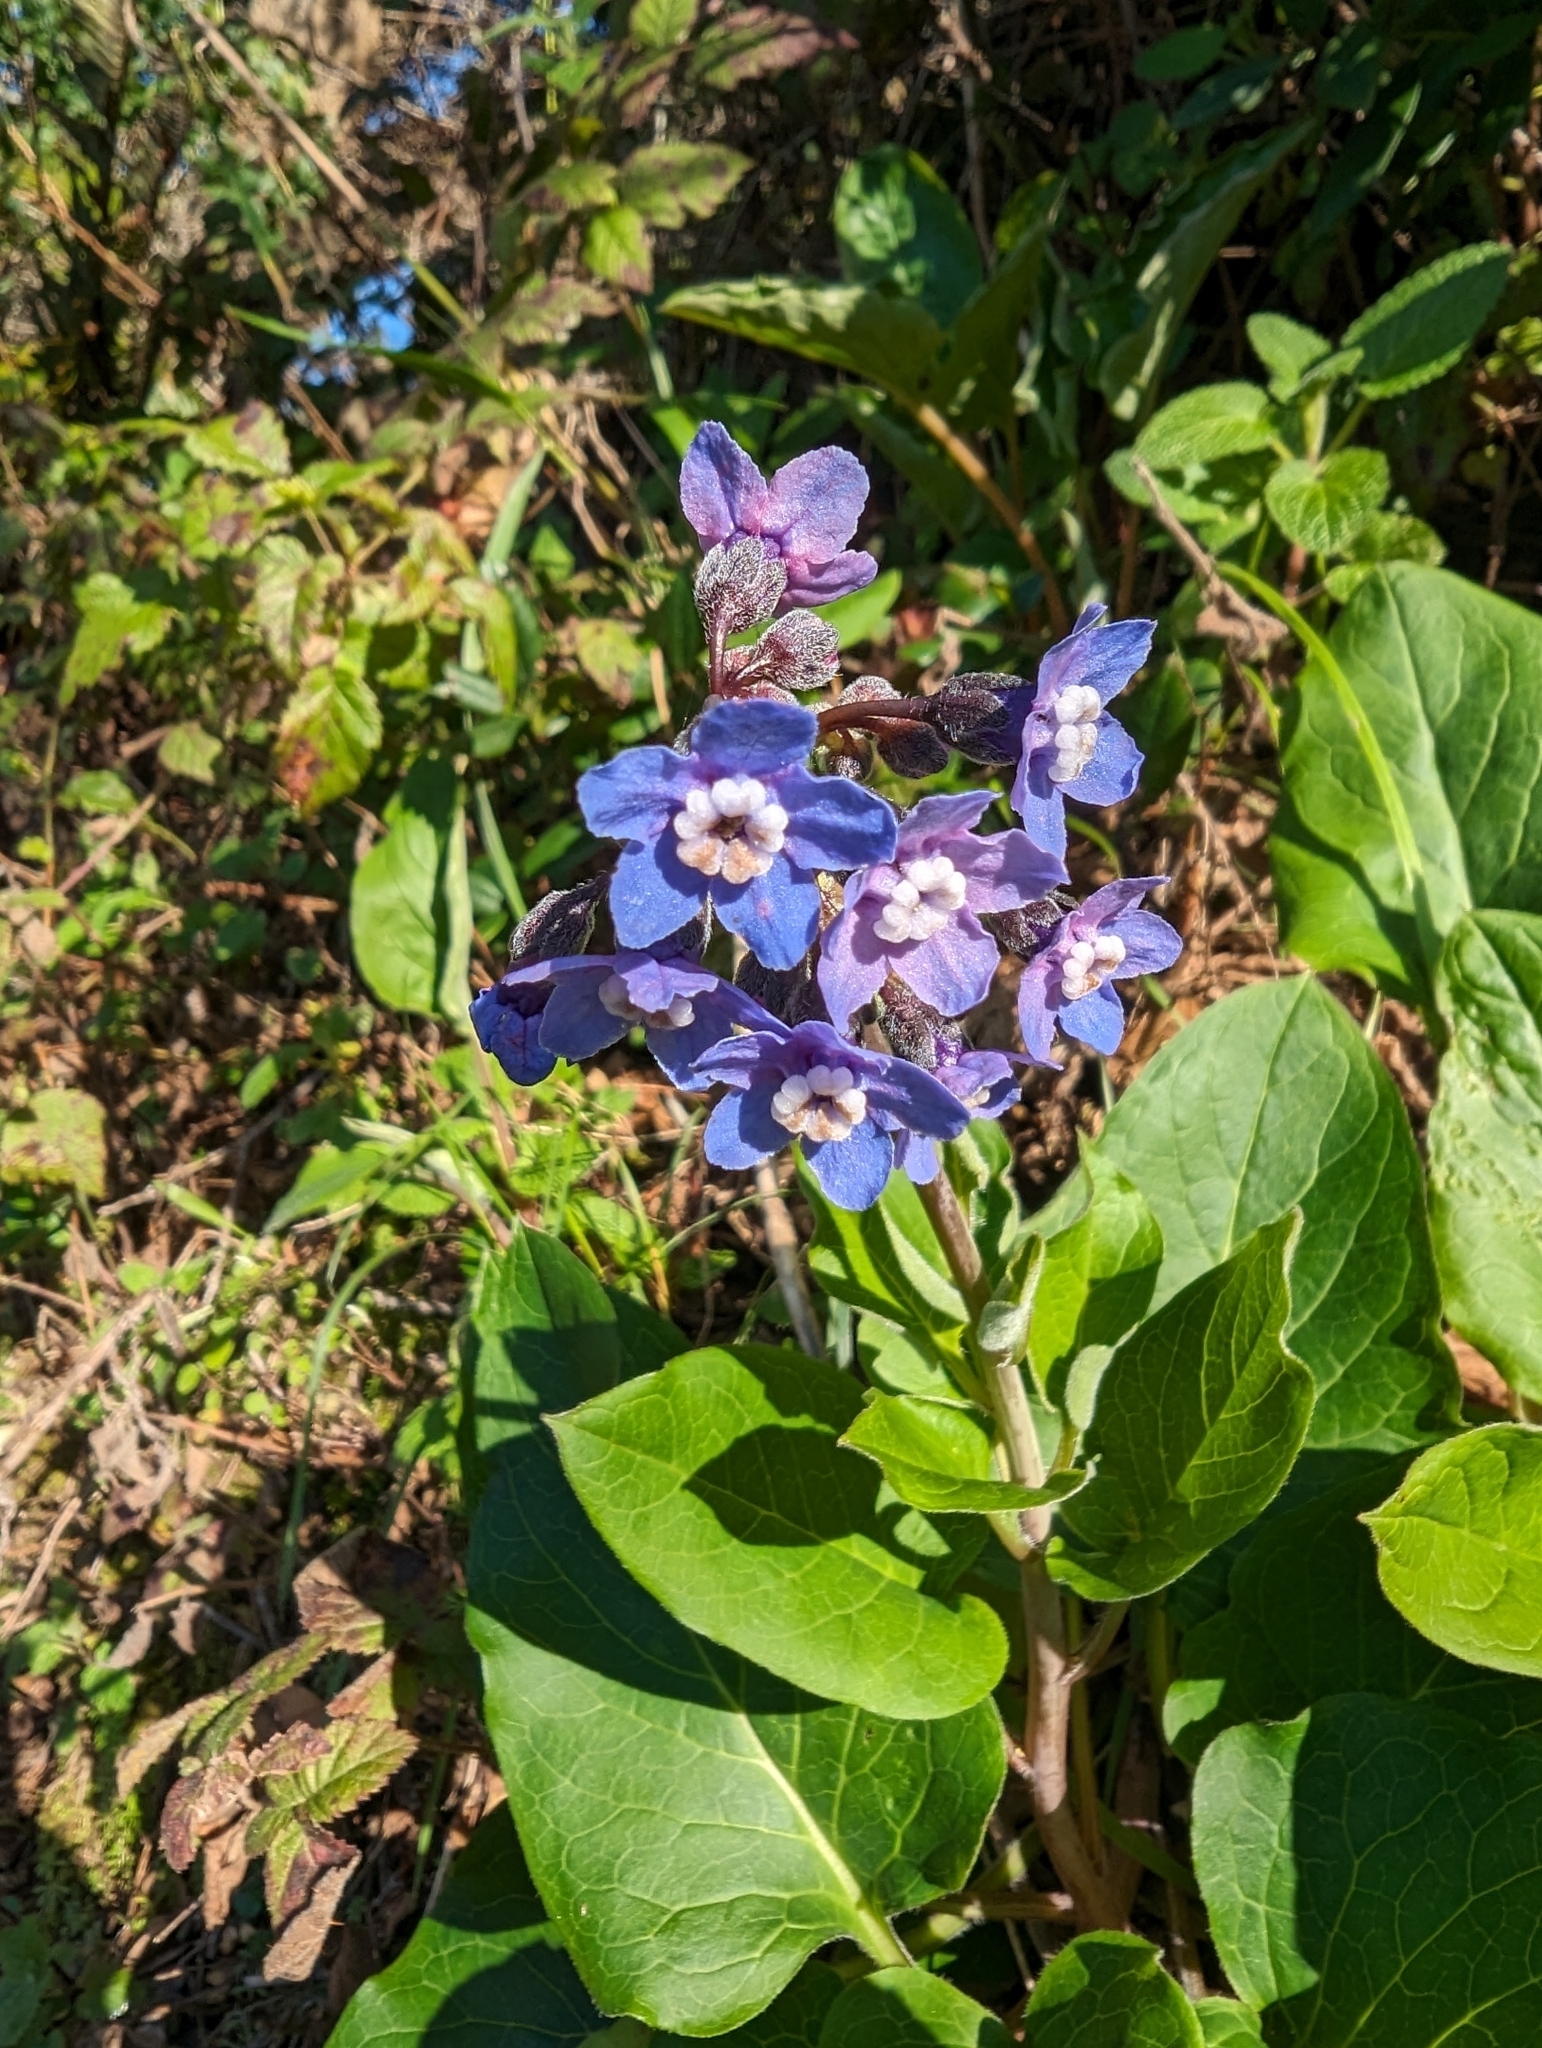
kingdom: Plantae
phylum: Tracheophyta
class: Magnoliopsida
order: Boraginales
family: Boraginaceae
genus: Adelinia
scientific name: Adelinia grande
